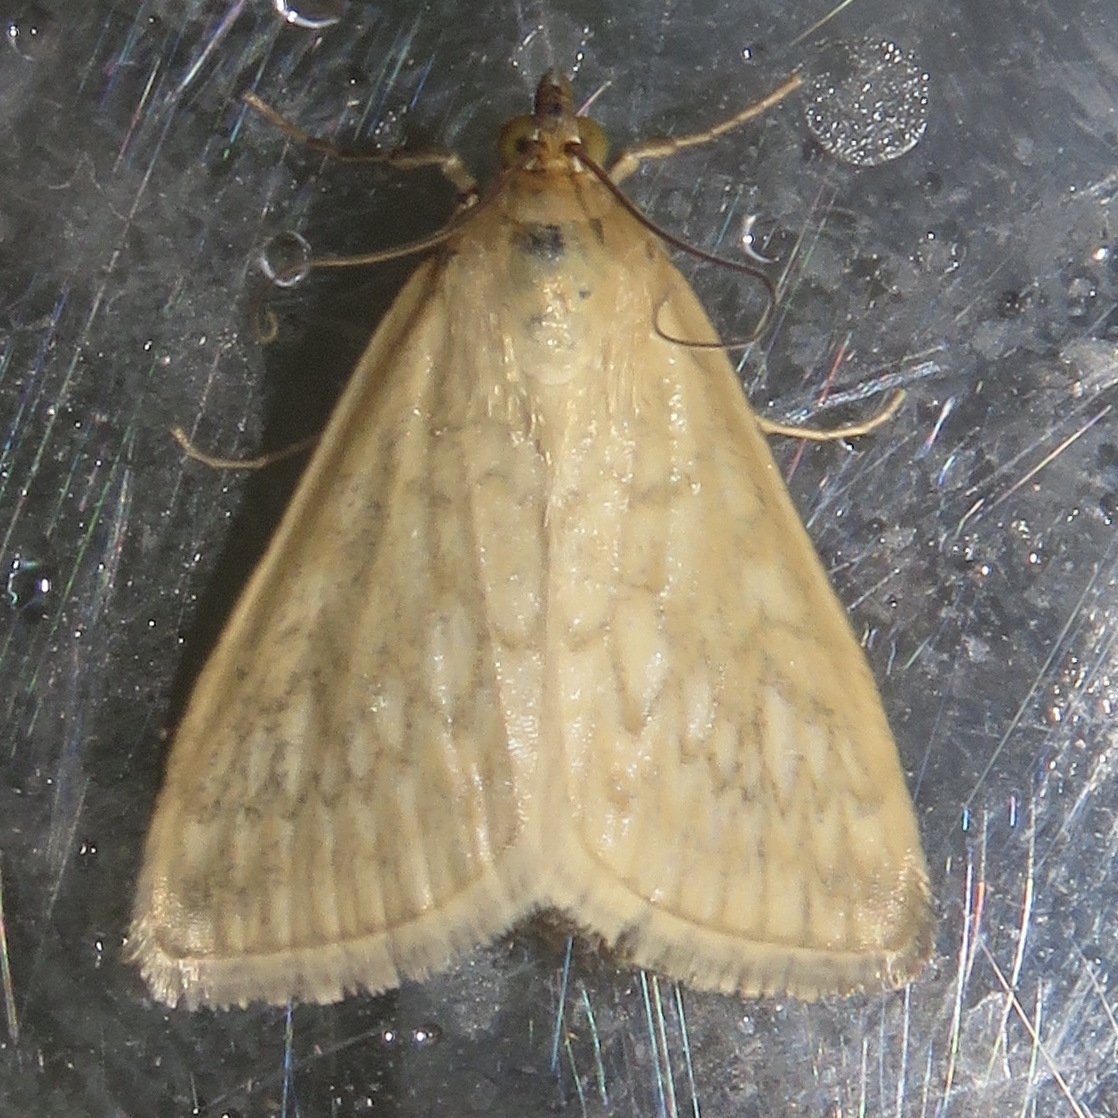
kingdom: Animalia
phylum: Arthropoda
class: Insecta
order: Lepidoptera
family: Crambidae
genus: Sitochroa
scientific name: Sitochroa chortalis
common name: Dimorphic sitochroa moth
